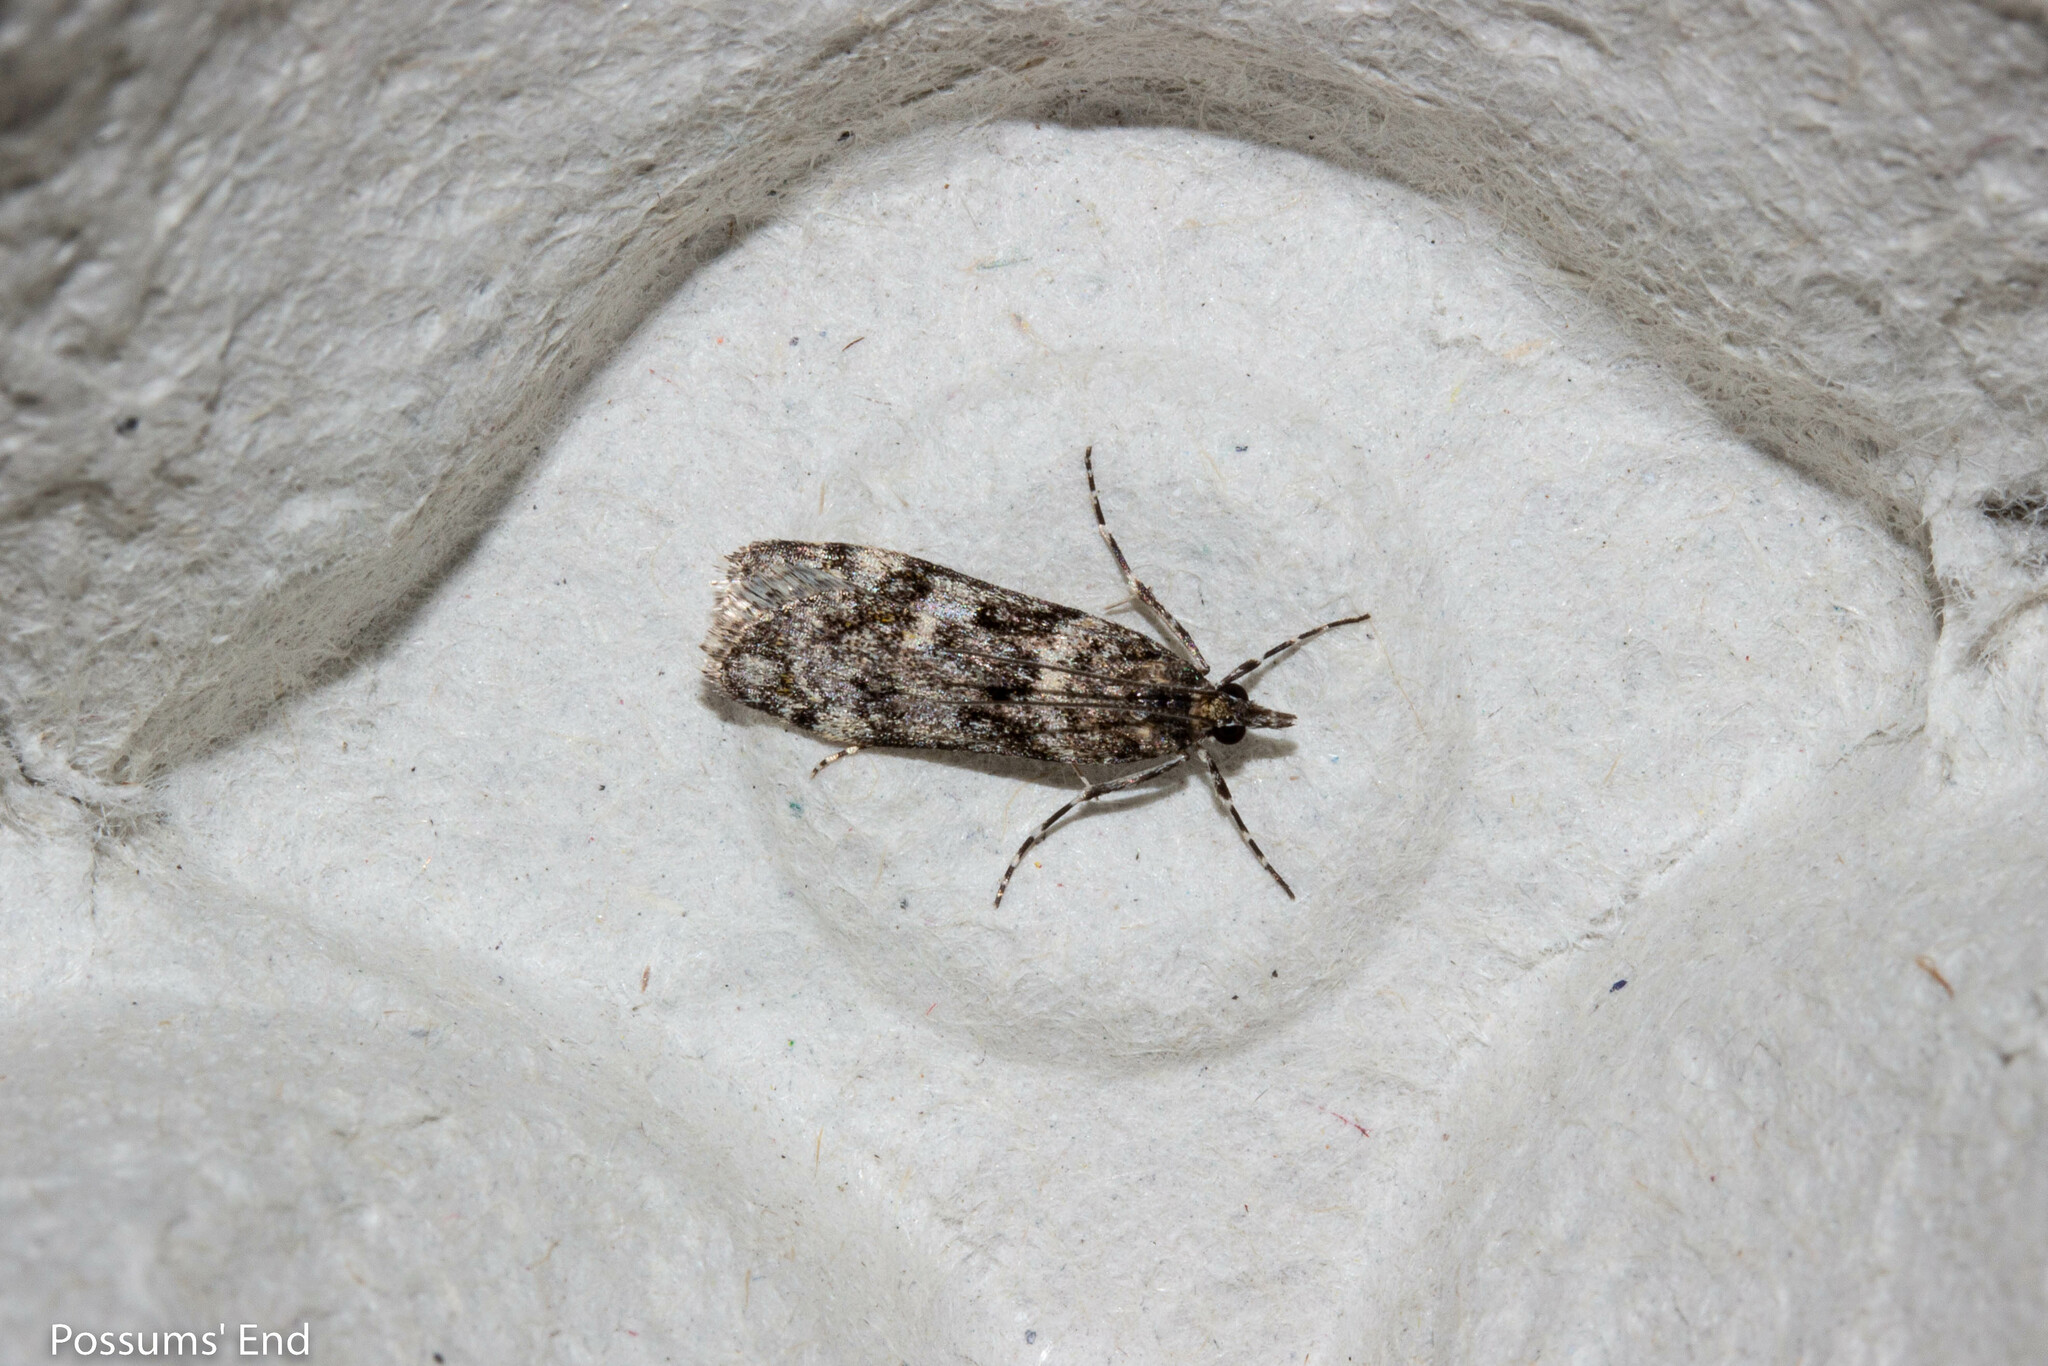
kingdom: Animalia
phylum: Arthropoda
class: Insecta
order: Lepidoptera
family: Crambidae
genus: Eudonia
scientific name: Eudonia manganeutis
